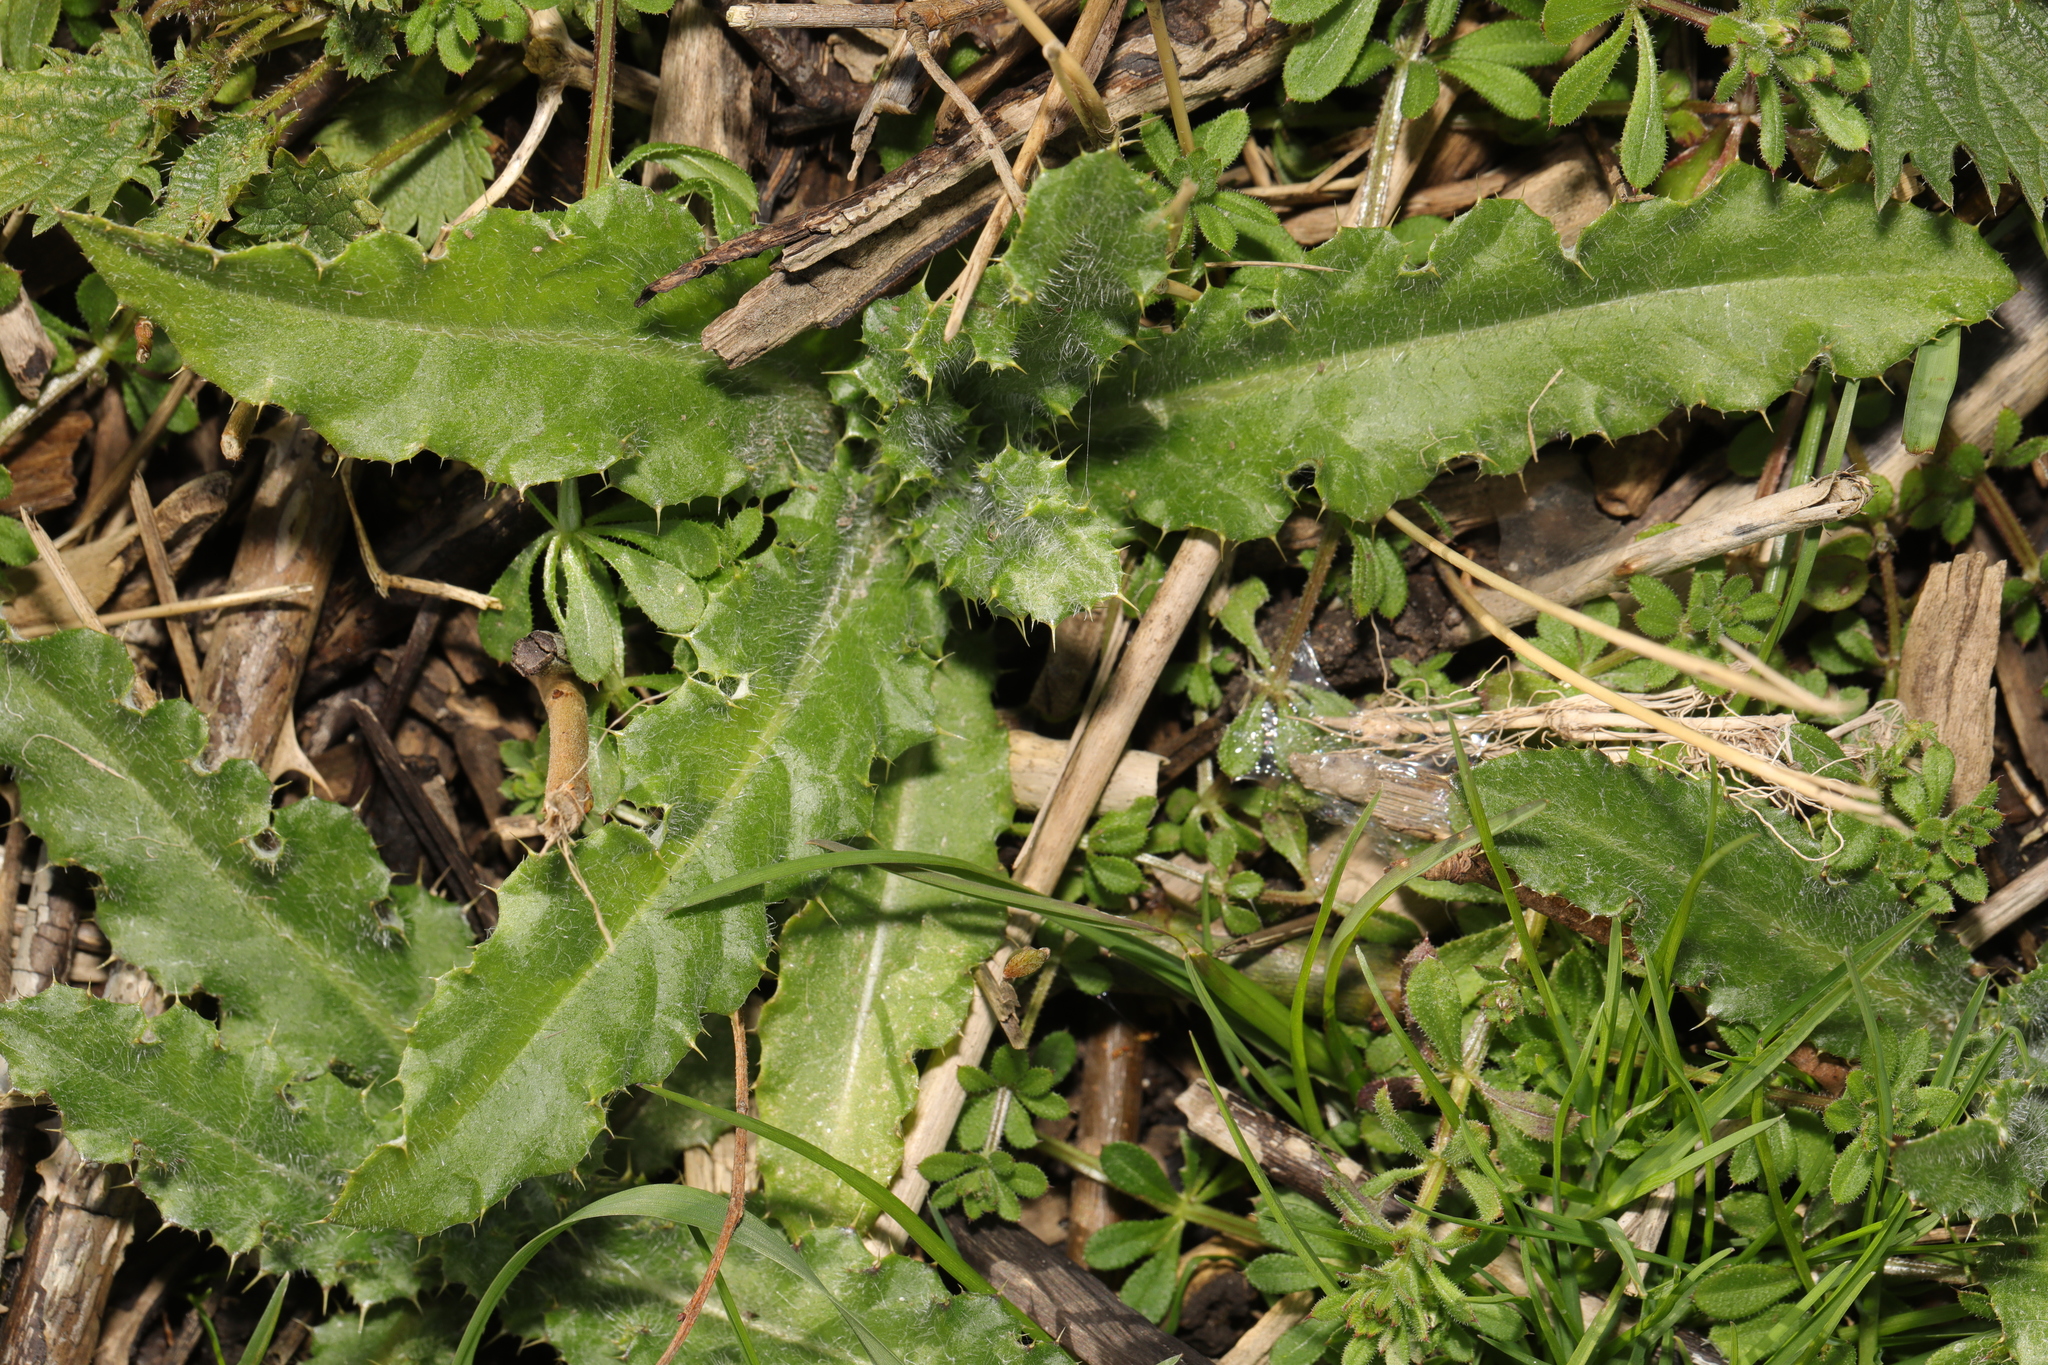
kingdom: Plantae
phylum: Tracheophyta
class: Magnoliopsida
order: Asterales
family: Asteraceae
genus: Cirsium
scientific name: Cirsium arvense
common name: Creeping thistle
